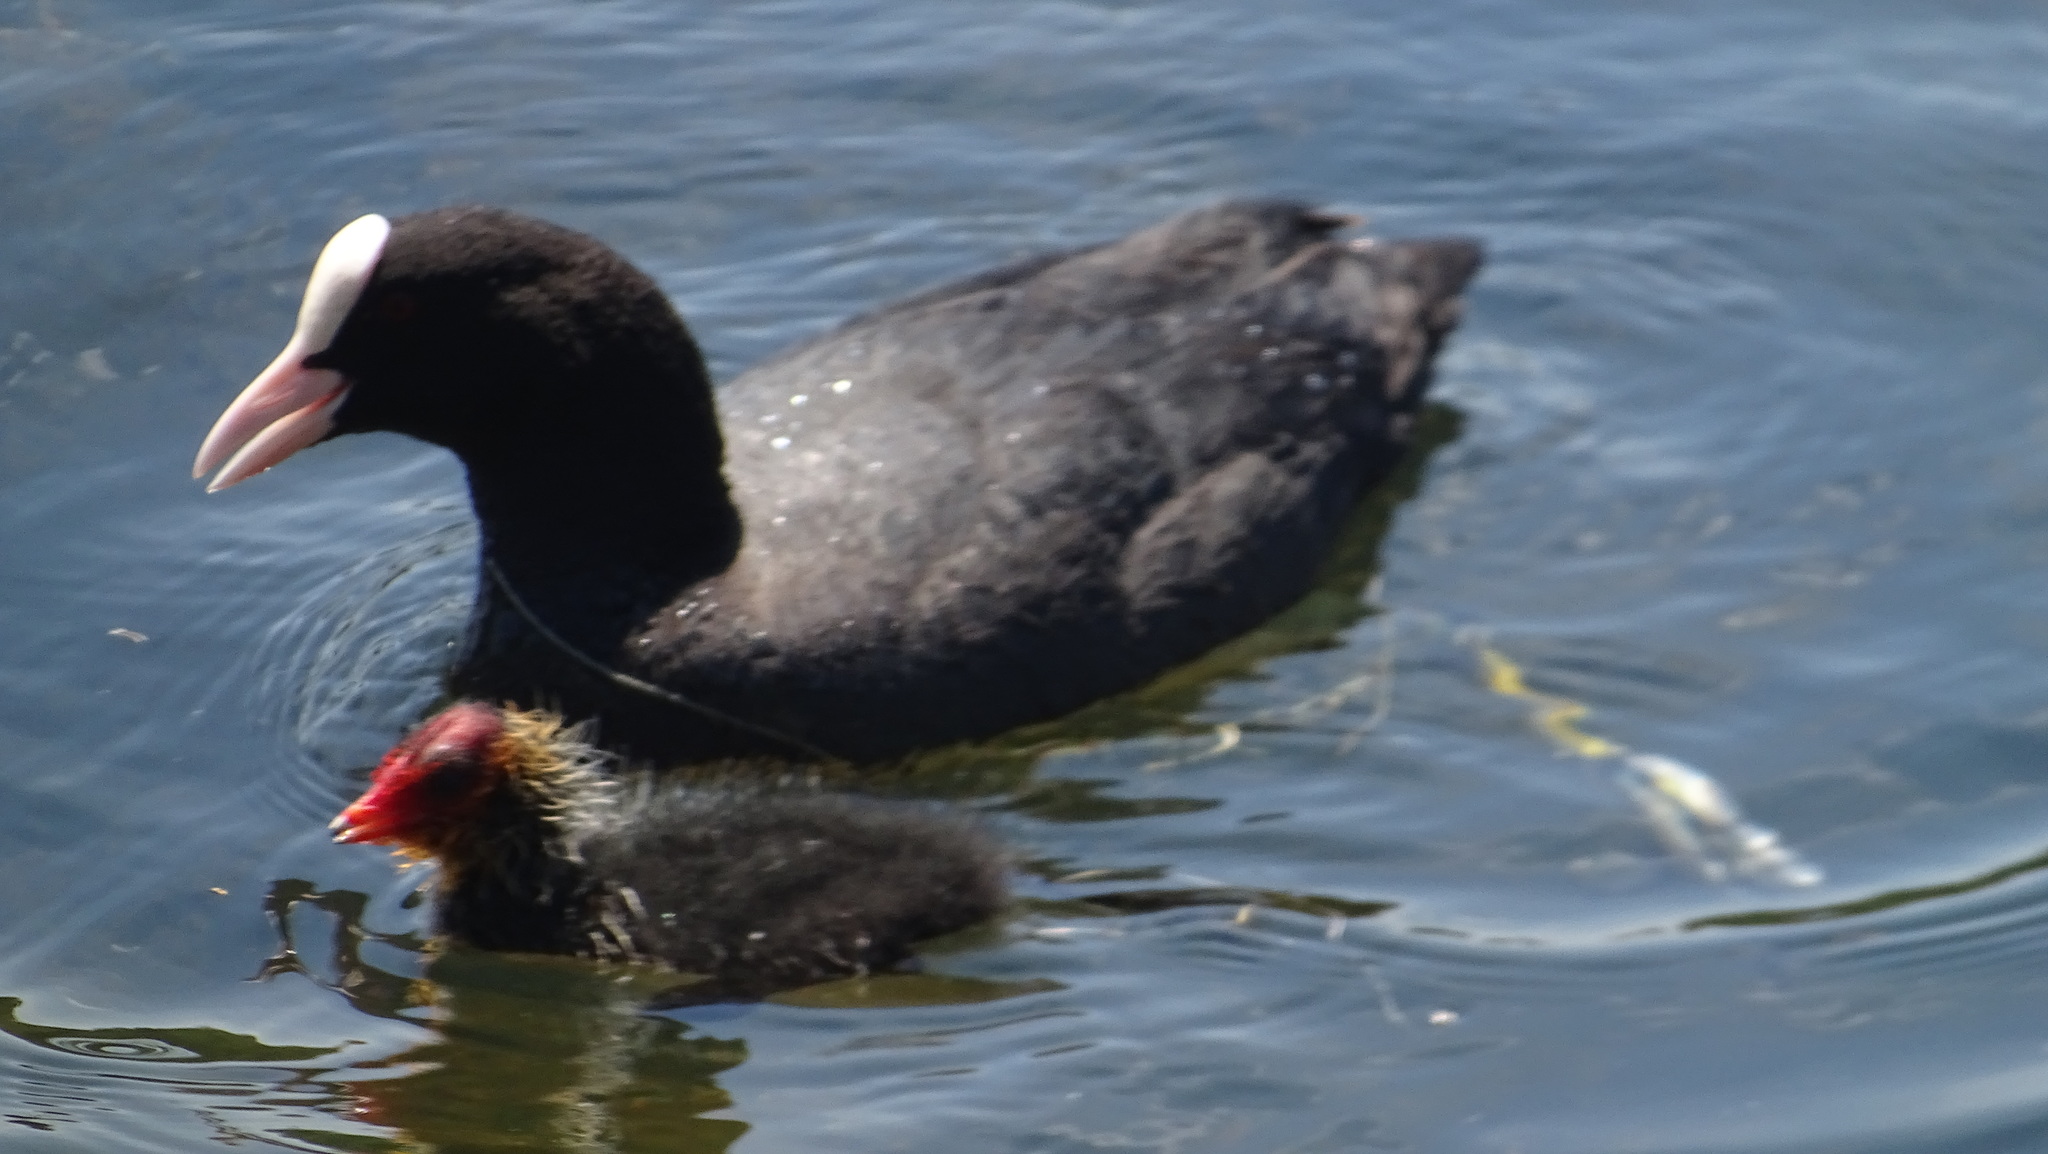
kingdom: Animalia
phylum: Chordata
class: Aves
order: Gruiformes
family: Rallidae
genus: Fulica
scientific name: Fulica atra
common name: Eurasian coot
